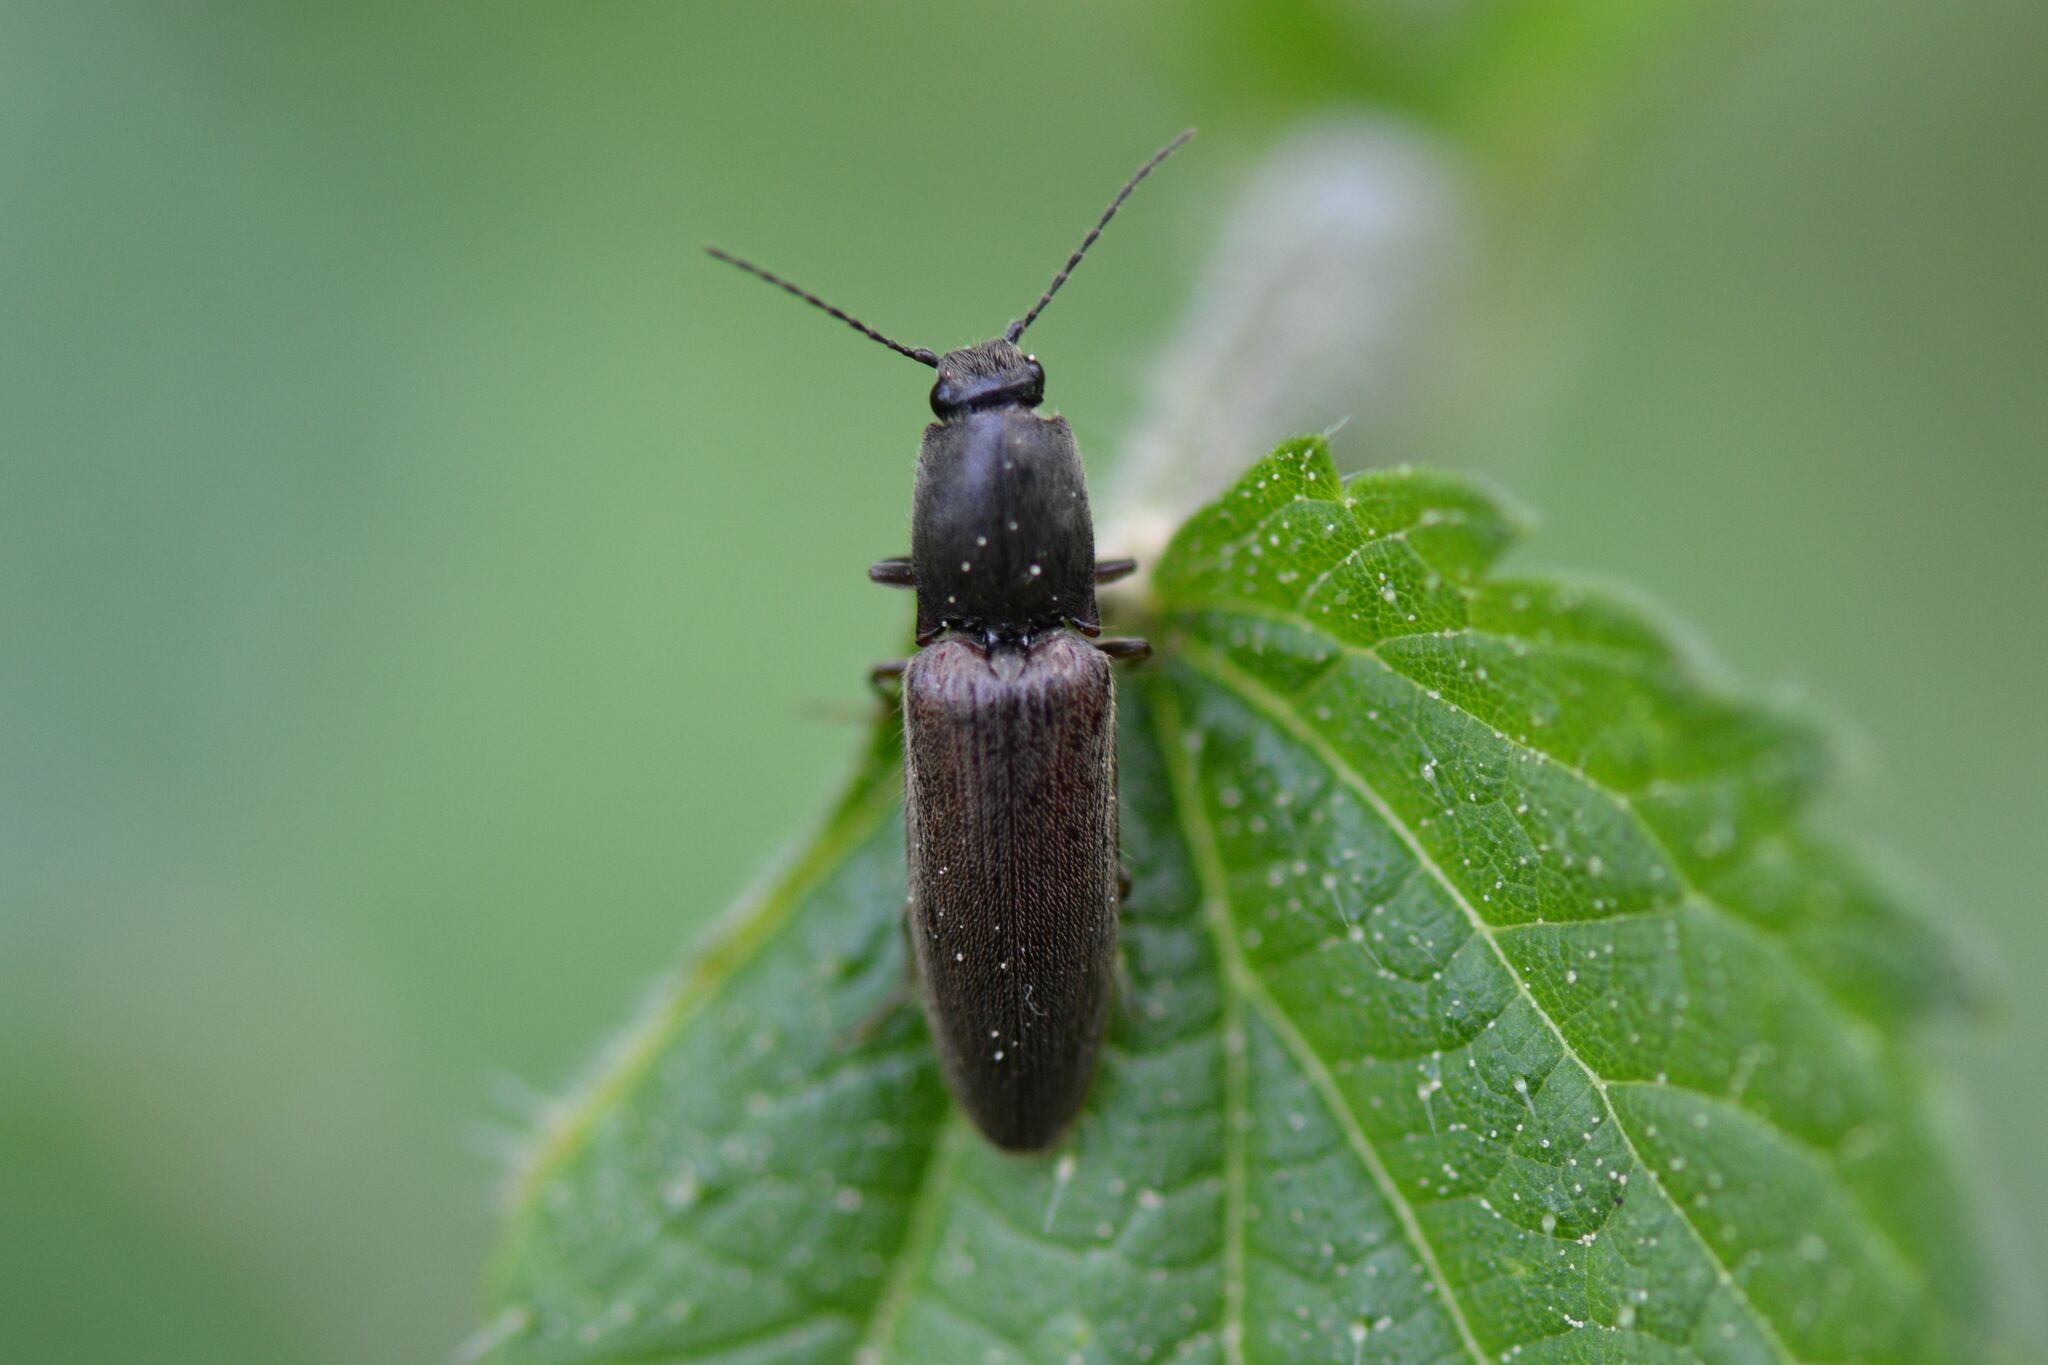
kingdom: Animalia
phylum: Arthropoda
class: Insecta
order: Coleoptera
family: Elateridae
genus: Athous
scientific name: Athous haemorrhoidalis
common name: Red-brown click beetle
